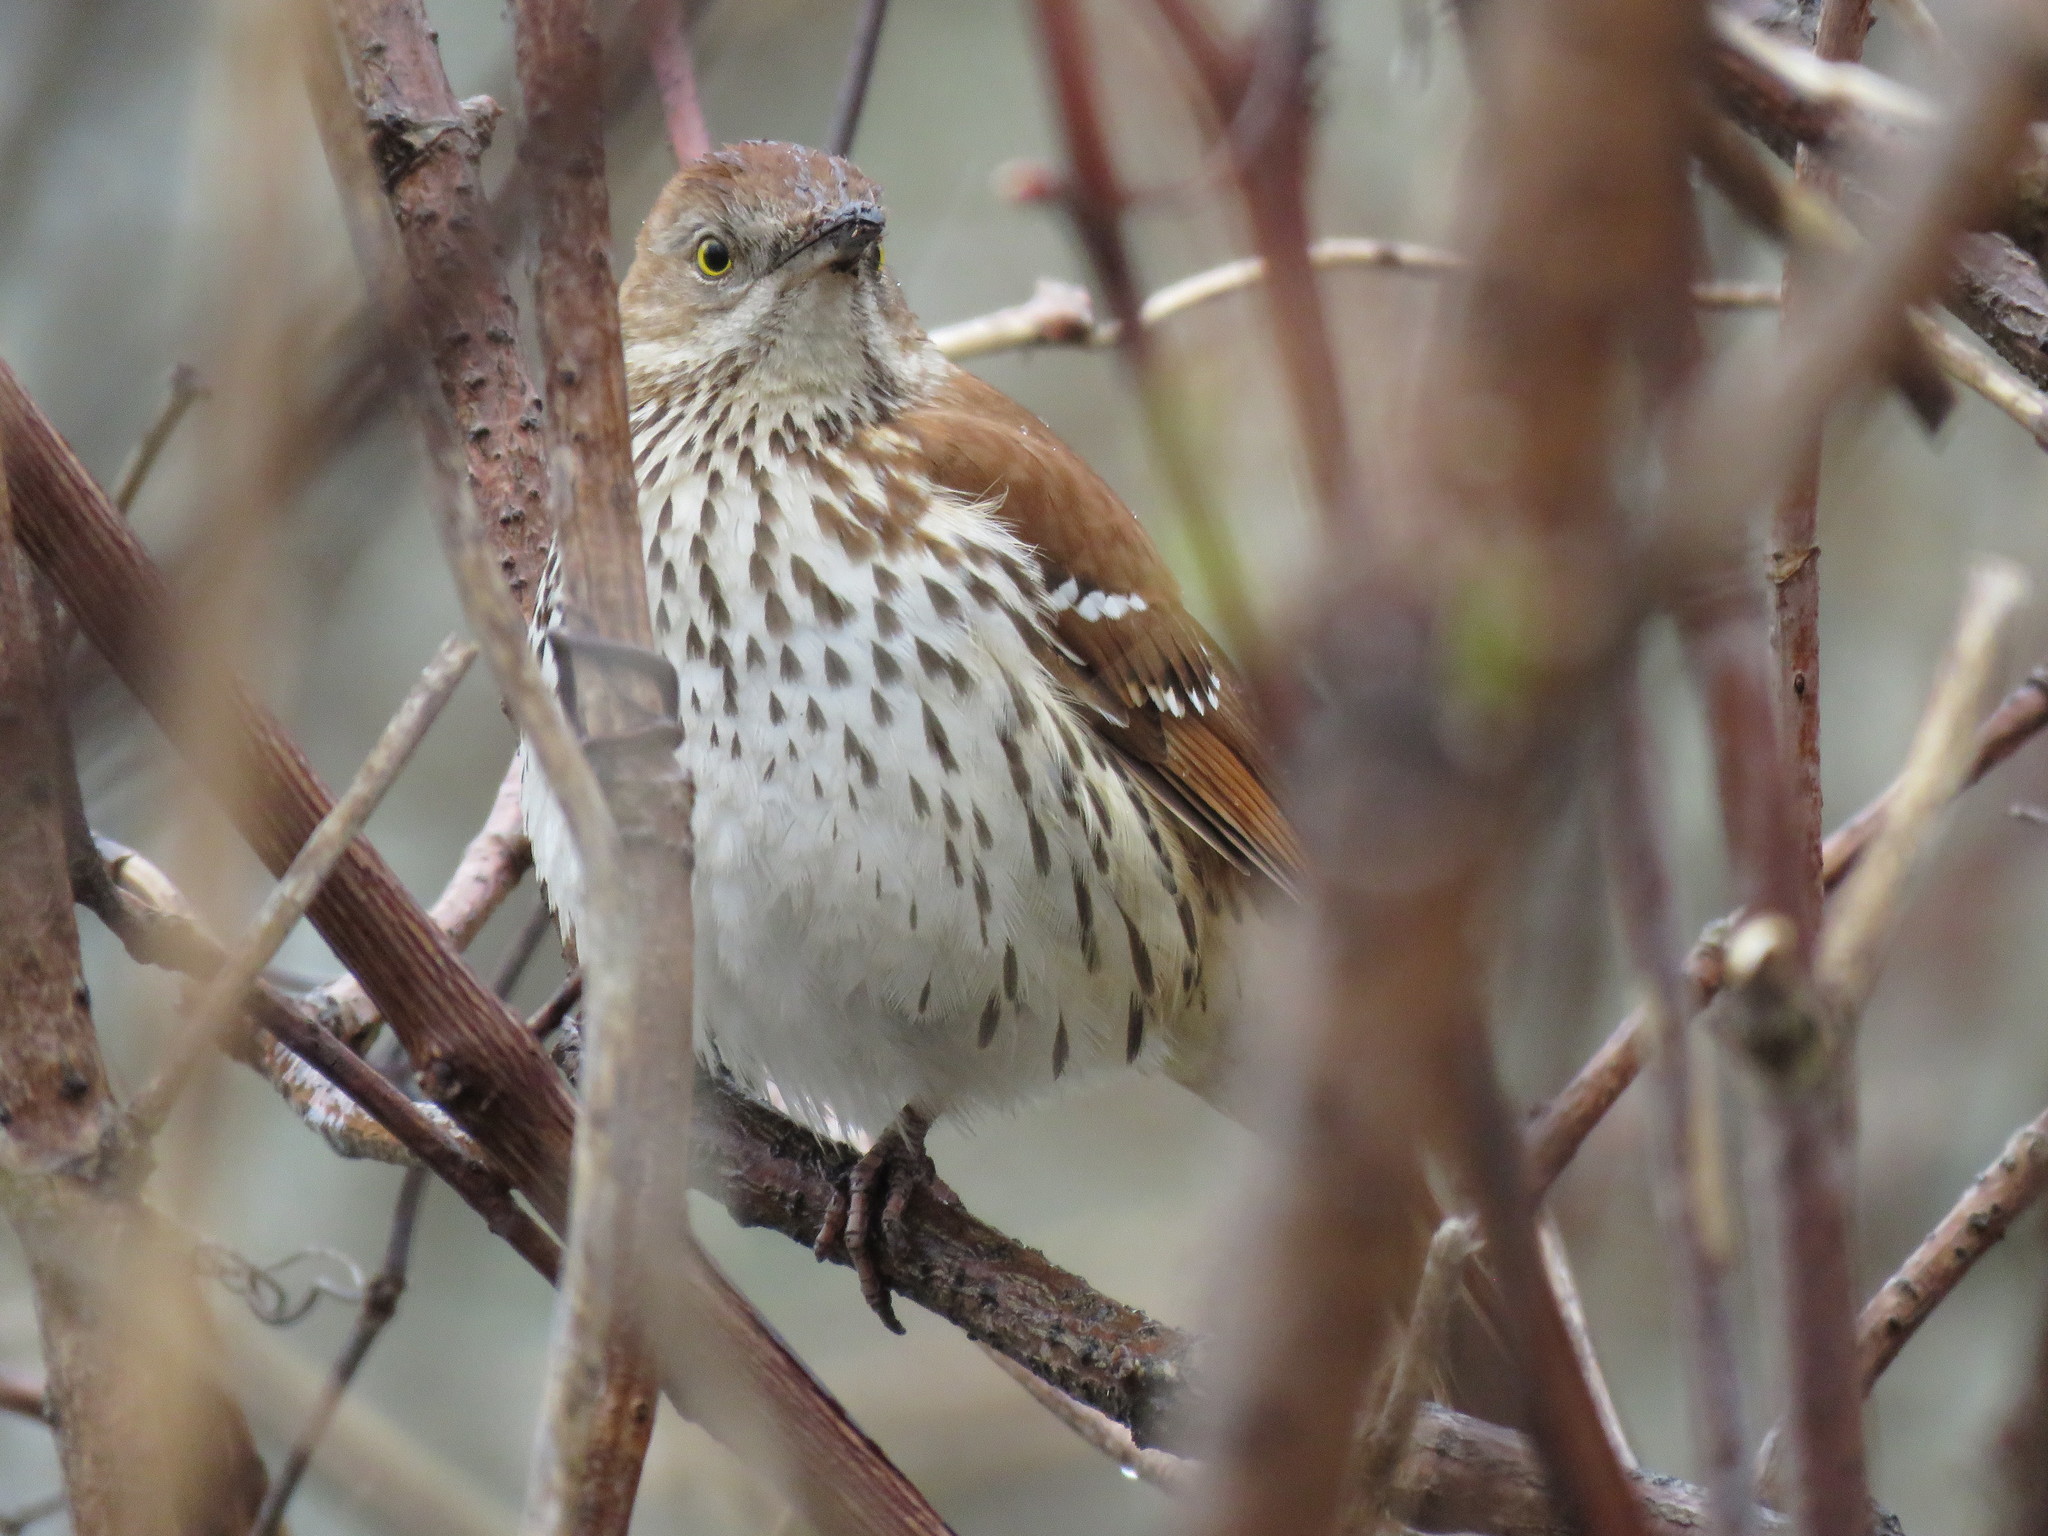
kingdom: Animalia
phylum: Chordata
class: Aves
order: Passeriformes
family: Mimidae
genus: Toxostoma
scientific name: Toxostoma rufum
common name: Brown thrasher
